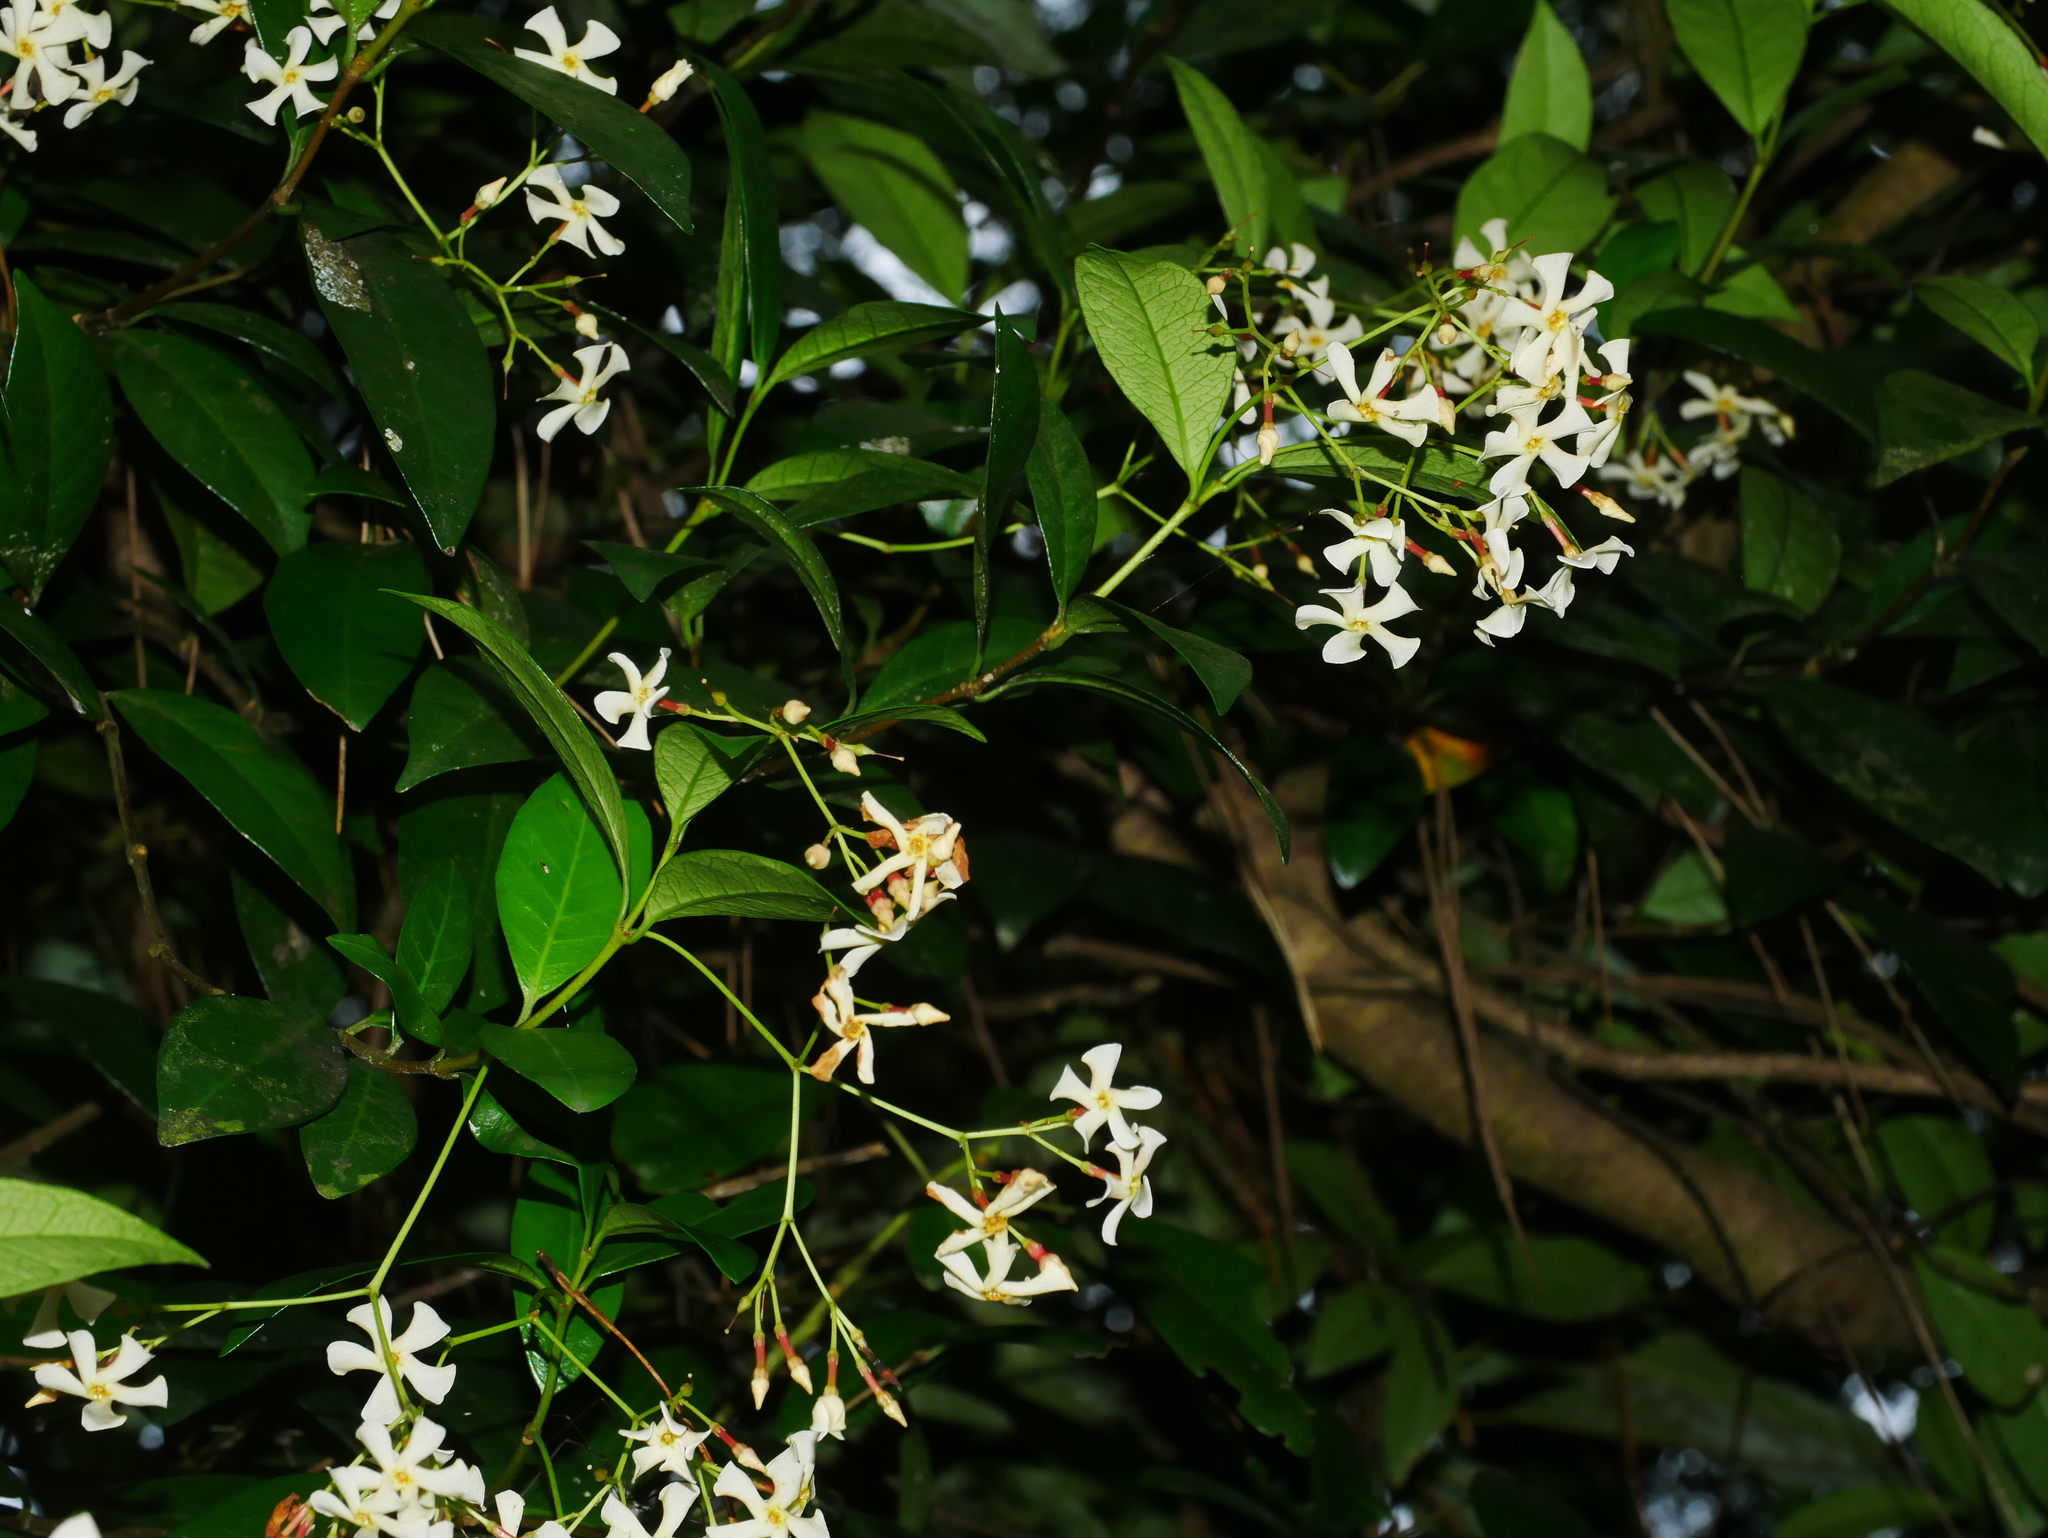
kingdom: Plantae
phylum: Tracheophyta
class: Magnoliopsida
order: Gentianales
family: Apocynaceae
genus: Trachelospermum
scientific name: Trachelospermum asiaticum
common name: Asiatic jasmine
